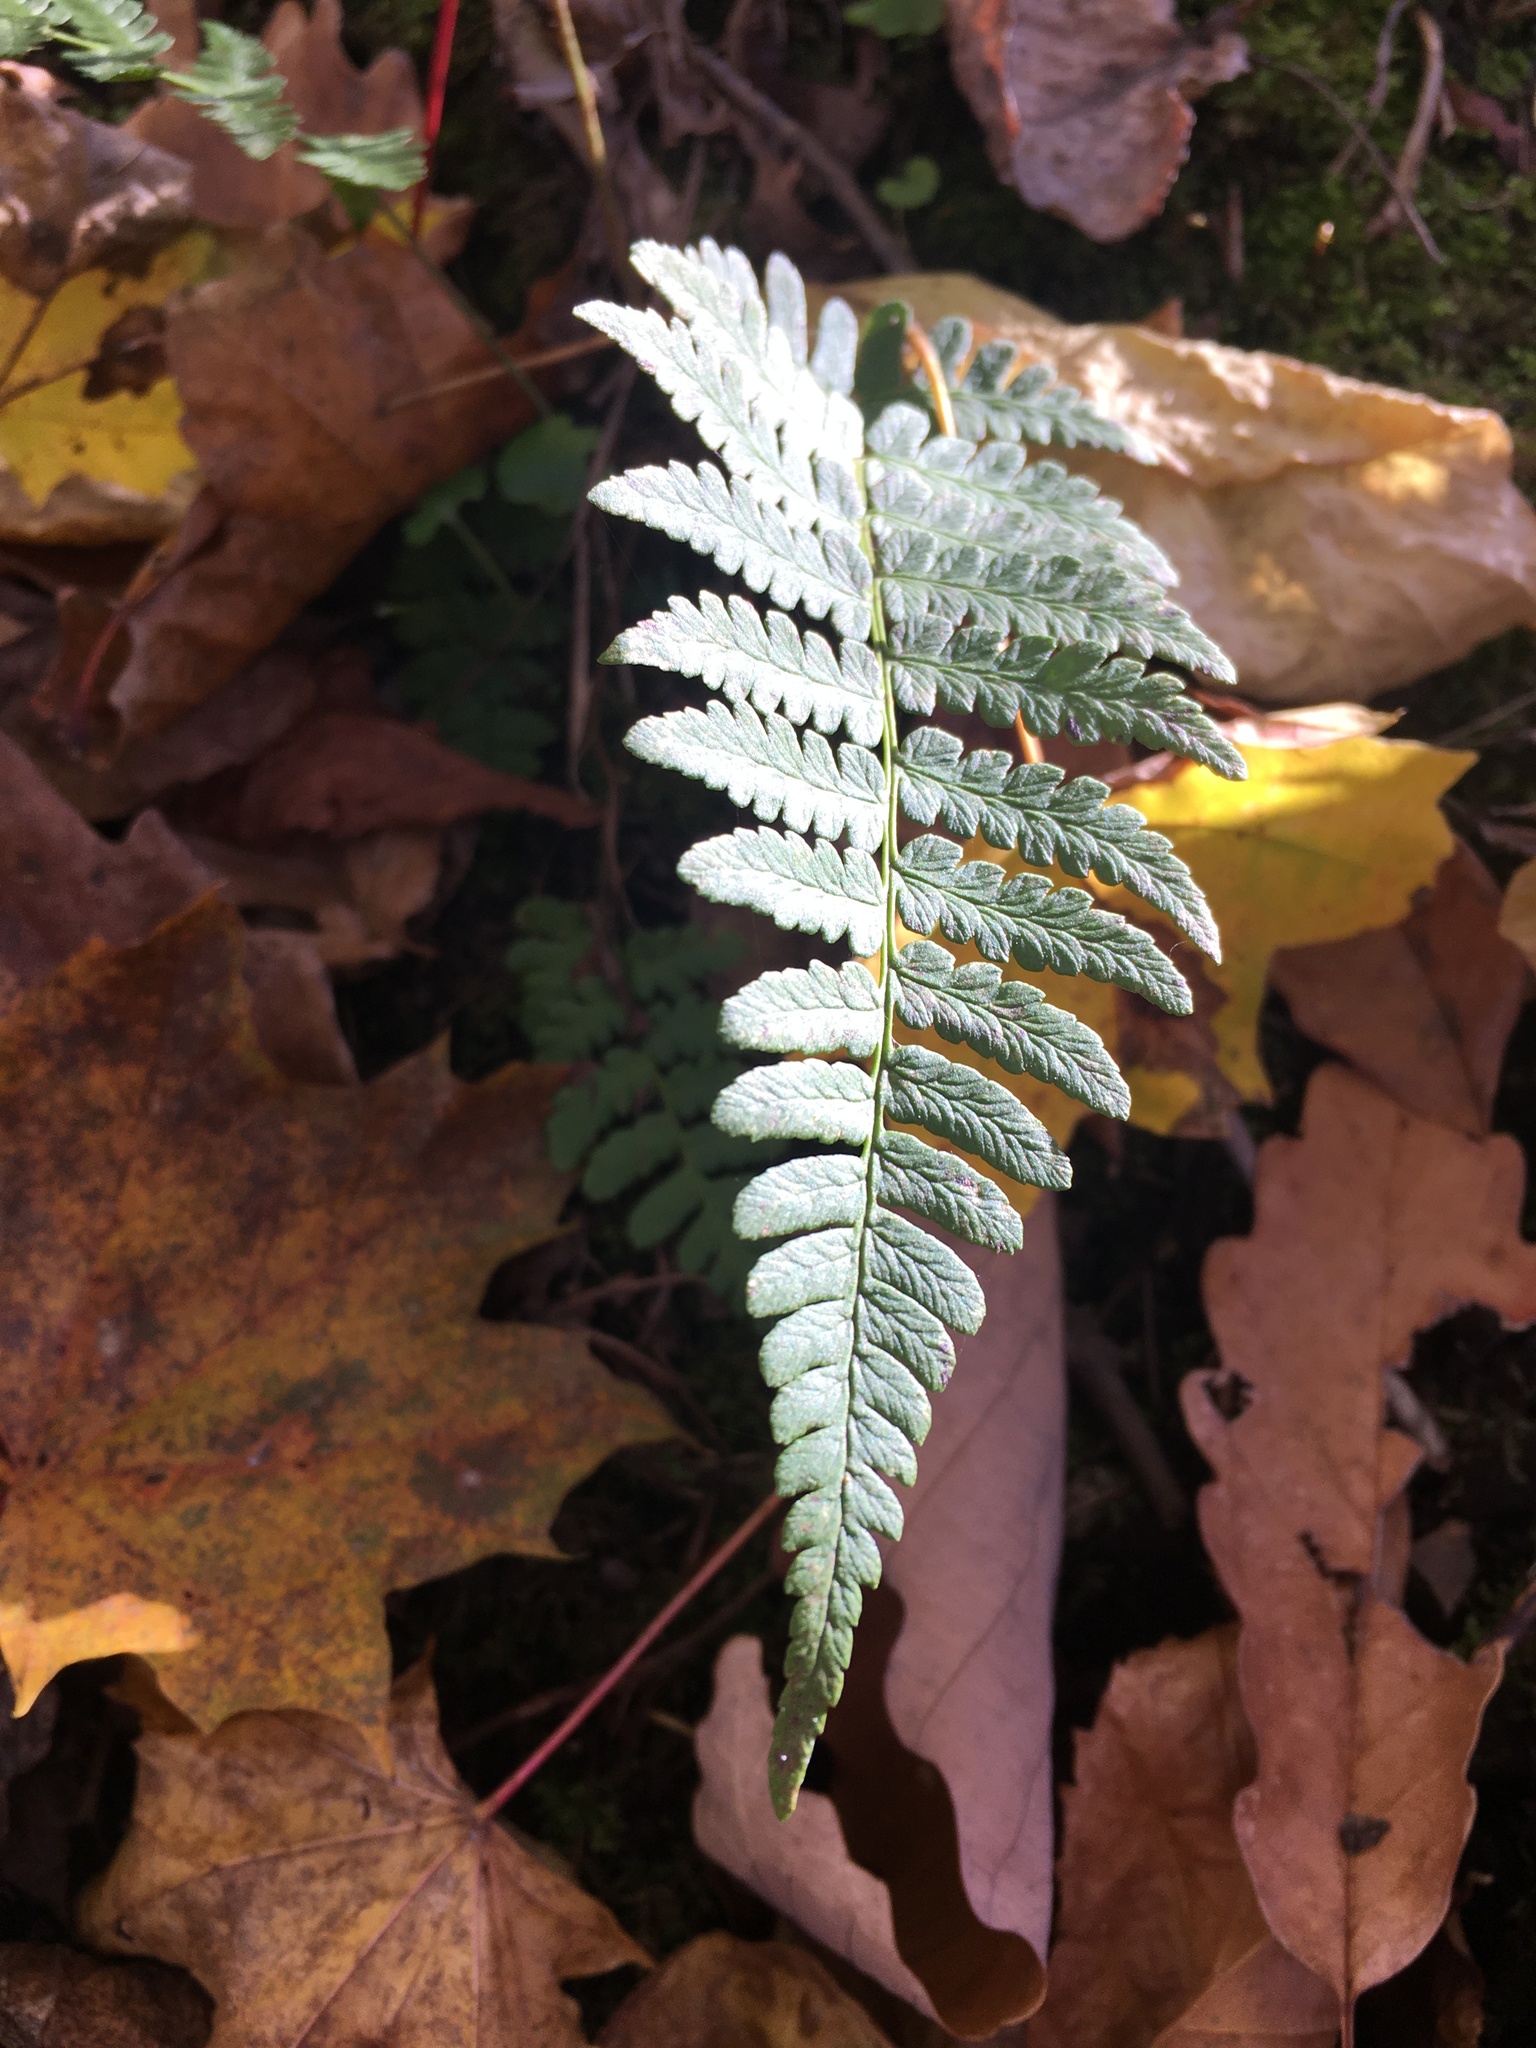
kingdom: Plantae
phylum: Tracheophyta
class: Polypodiopsida
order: Polypodiales
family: Dryopteridaceae
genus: Dryopteris
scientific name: Dryopteris marginalis
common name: Marginal wood fern
